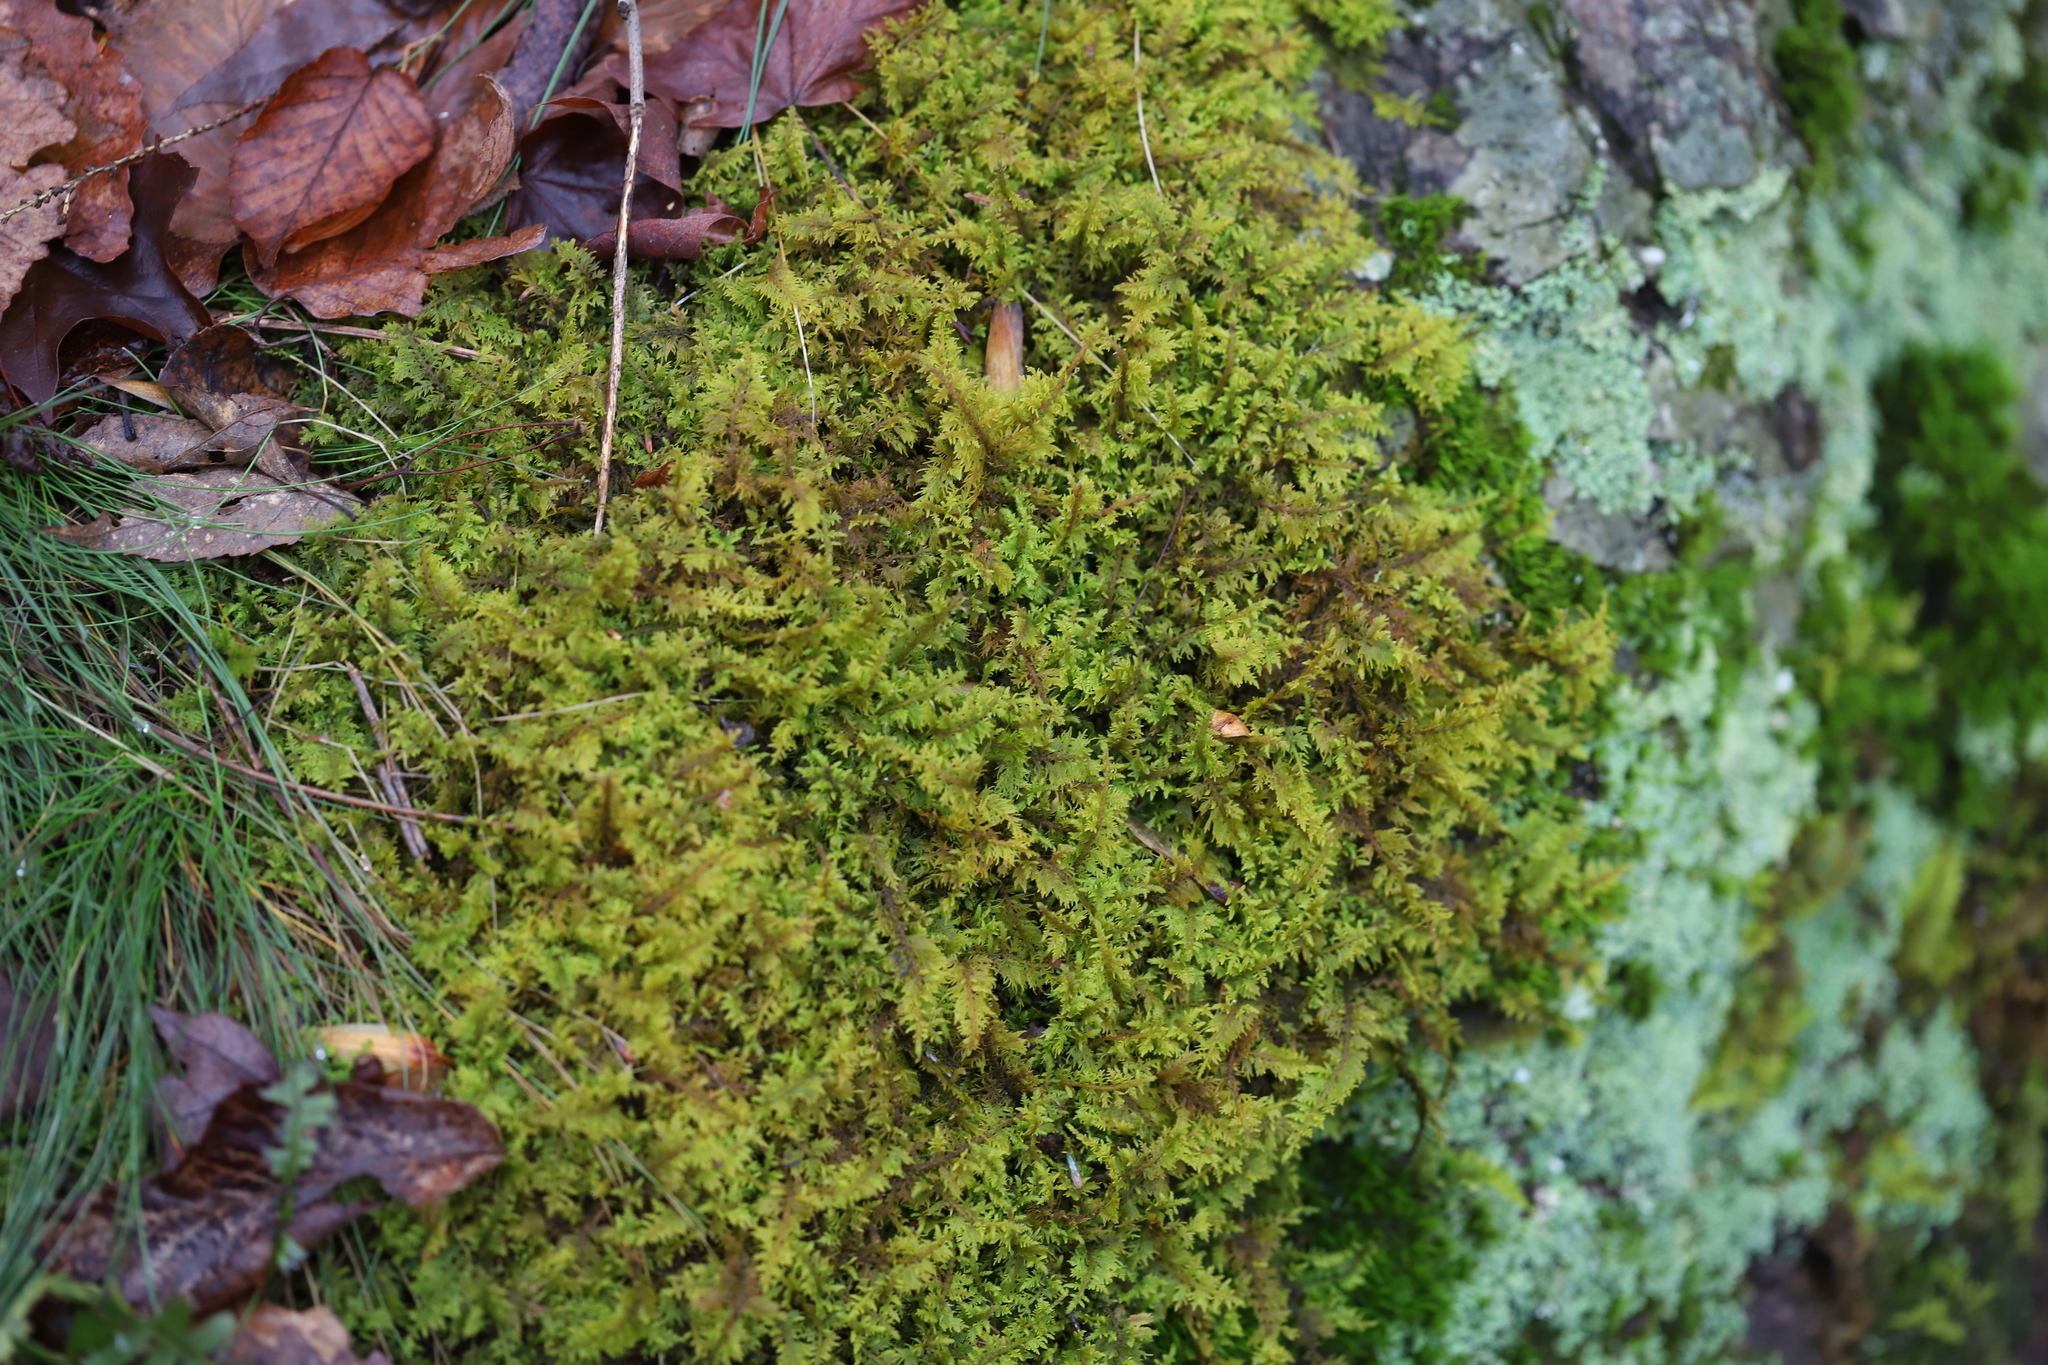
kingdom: Plantae
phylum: Bryophyta
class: Bryopsida
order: Hypnales
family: Thuidiaceae
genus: Thuidium
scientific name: Thuidium delicatulum
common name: Delicate fern moss
